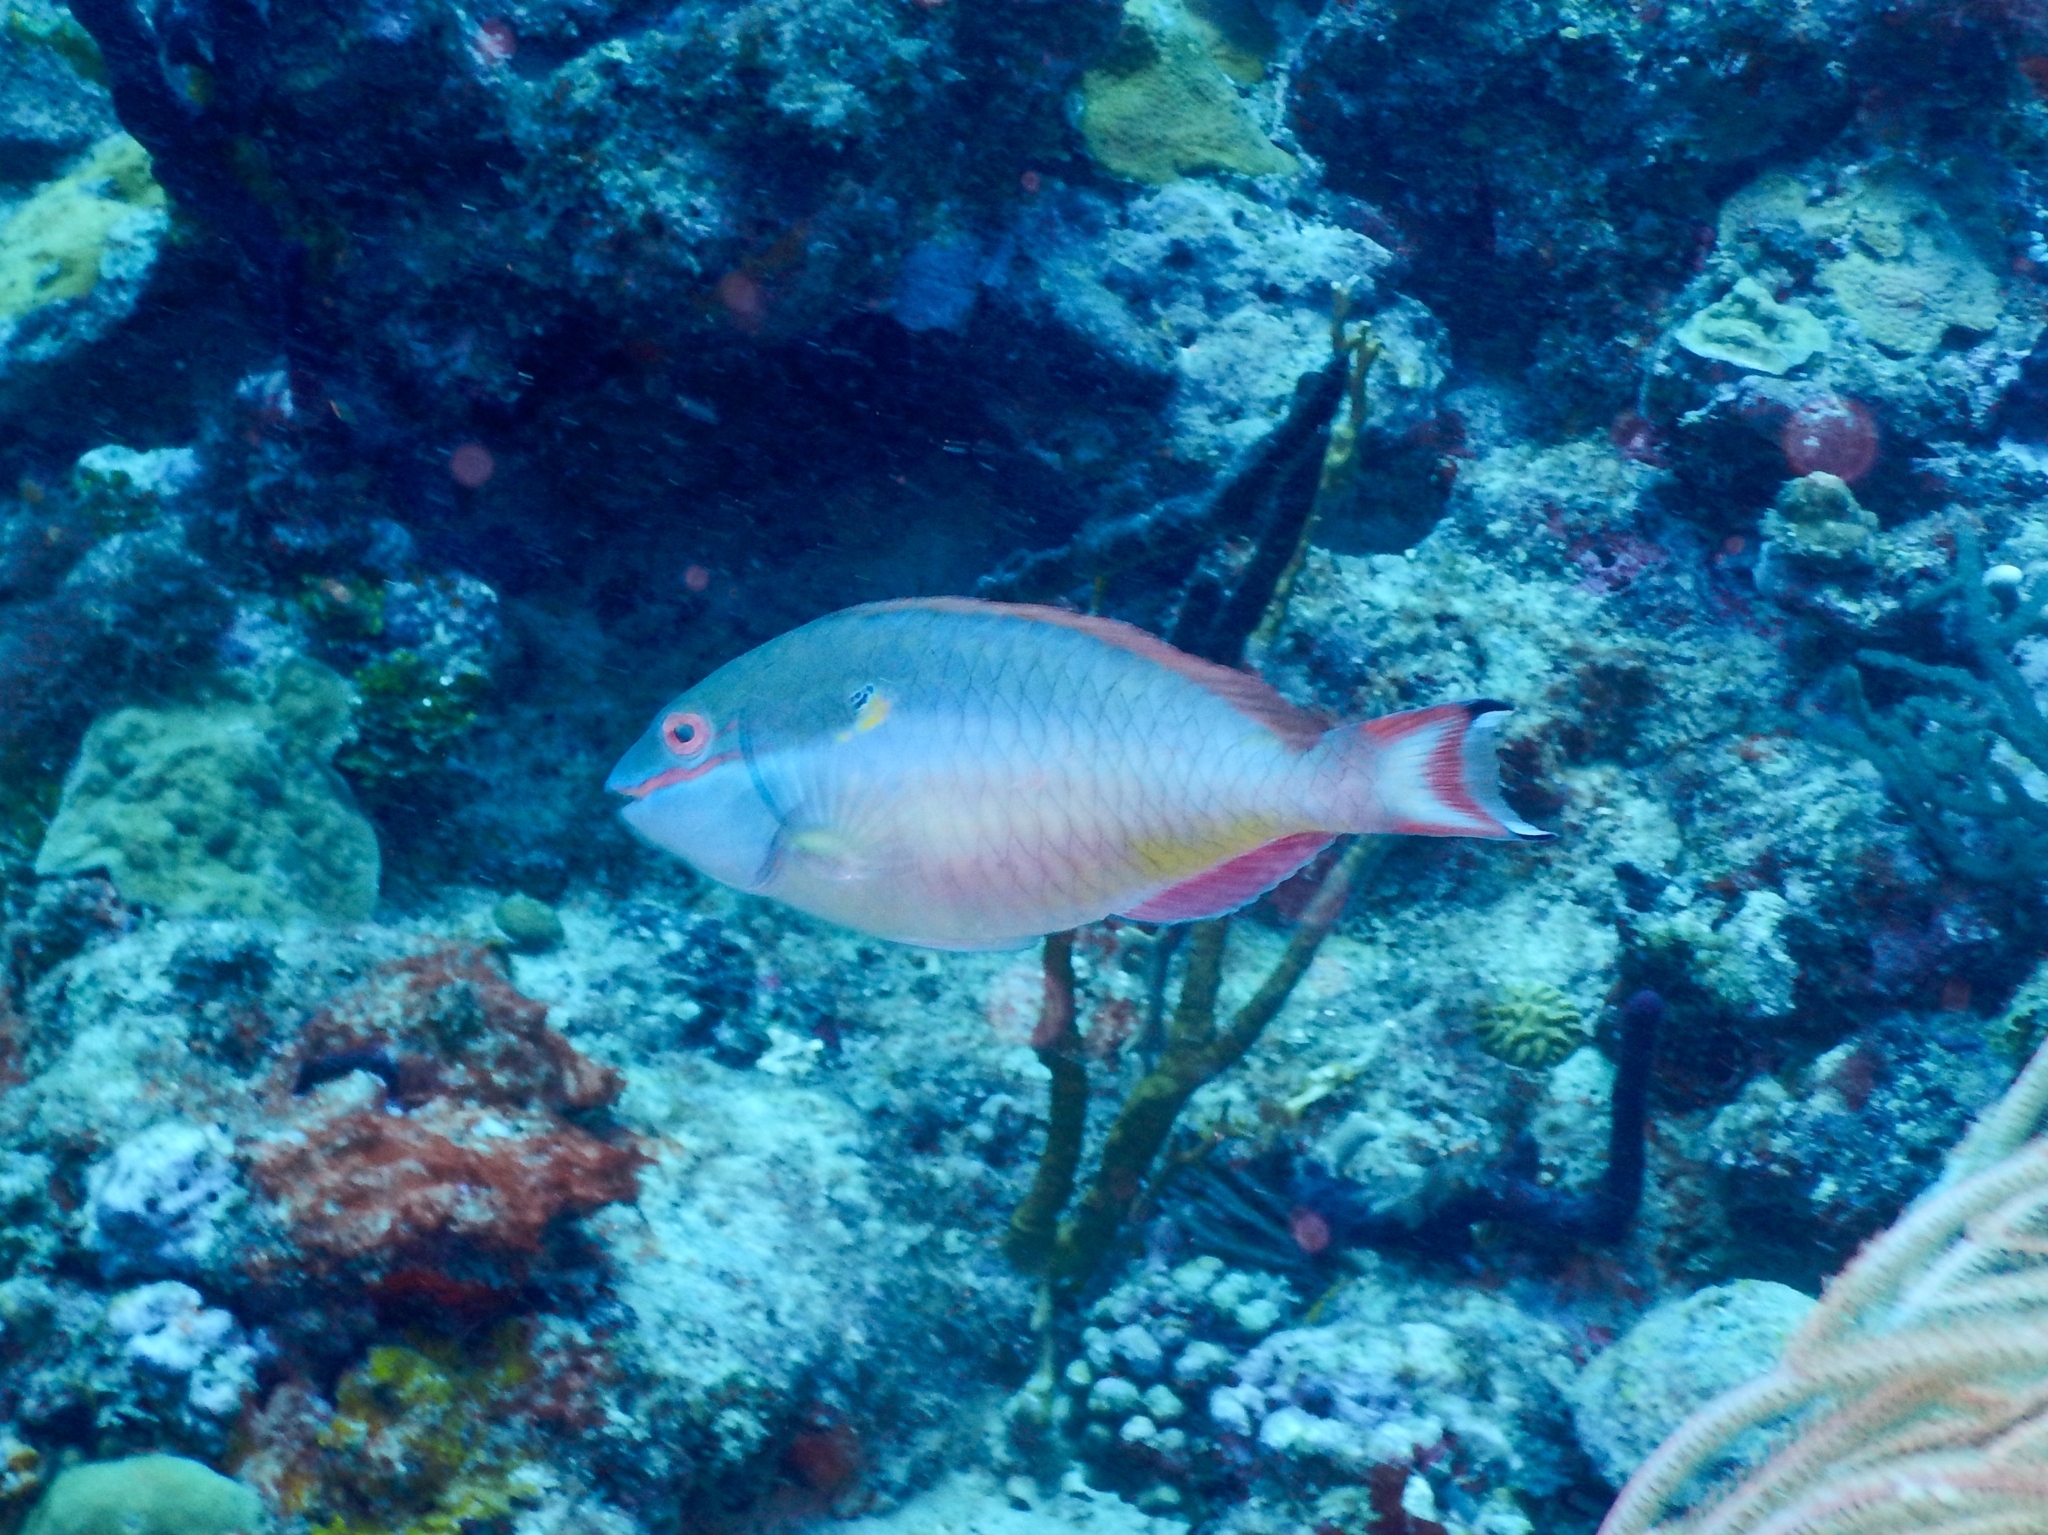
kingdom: Animalia
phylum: Chordata
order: Perciformes
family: Scaridae
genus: Sparisoma
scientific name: Sparisoma aurofrenatum
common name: Redband parrotfish
